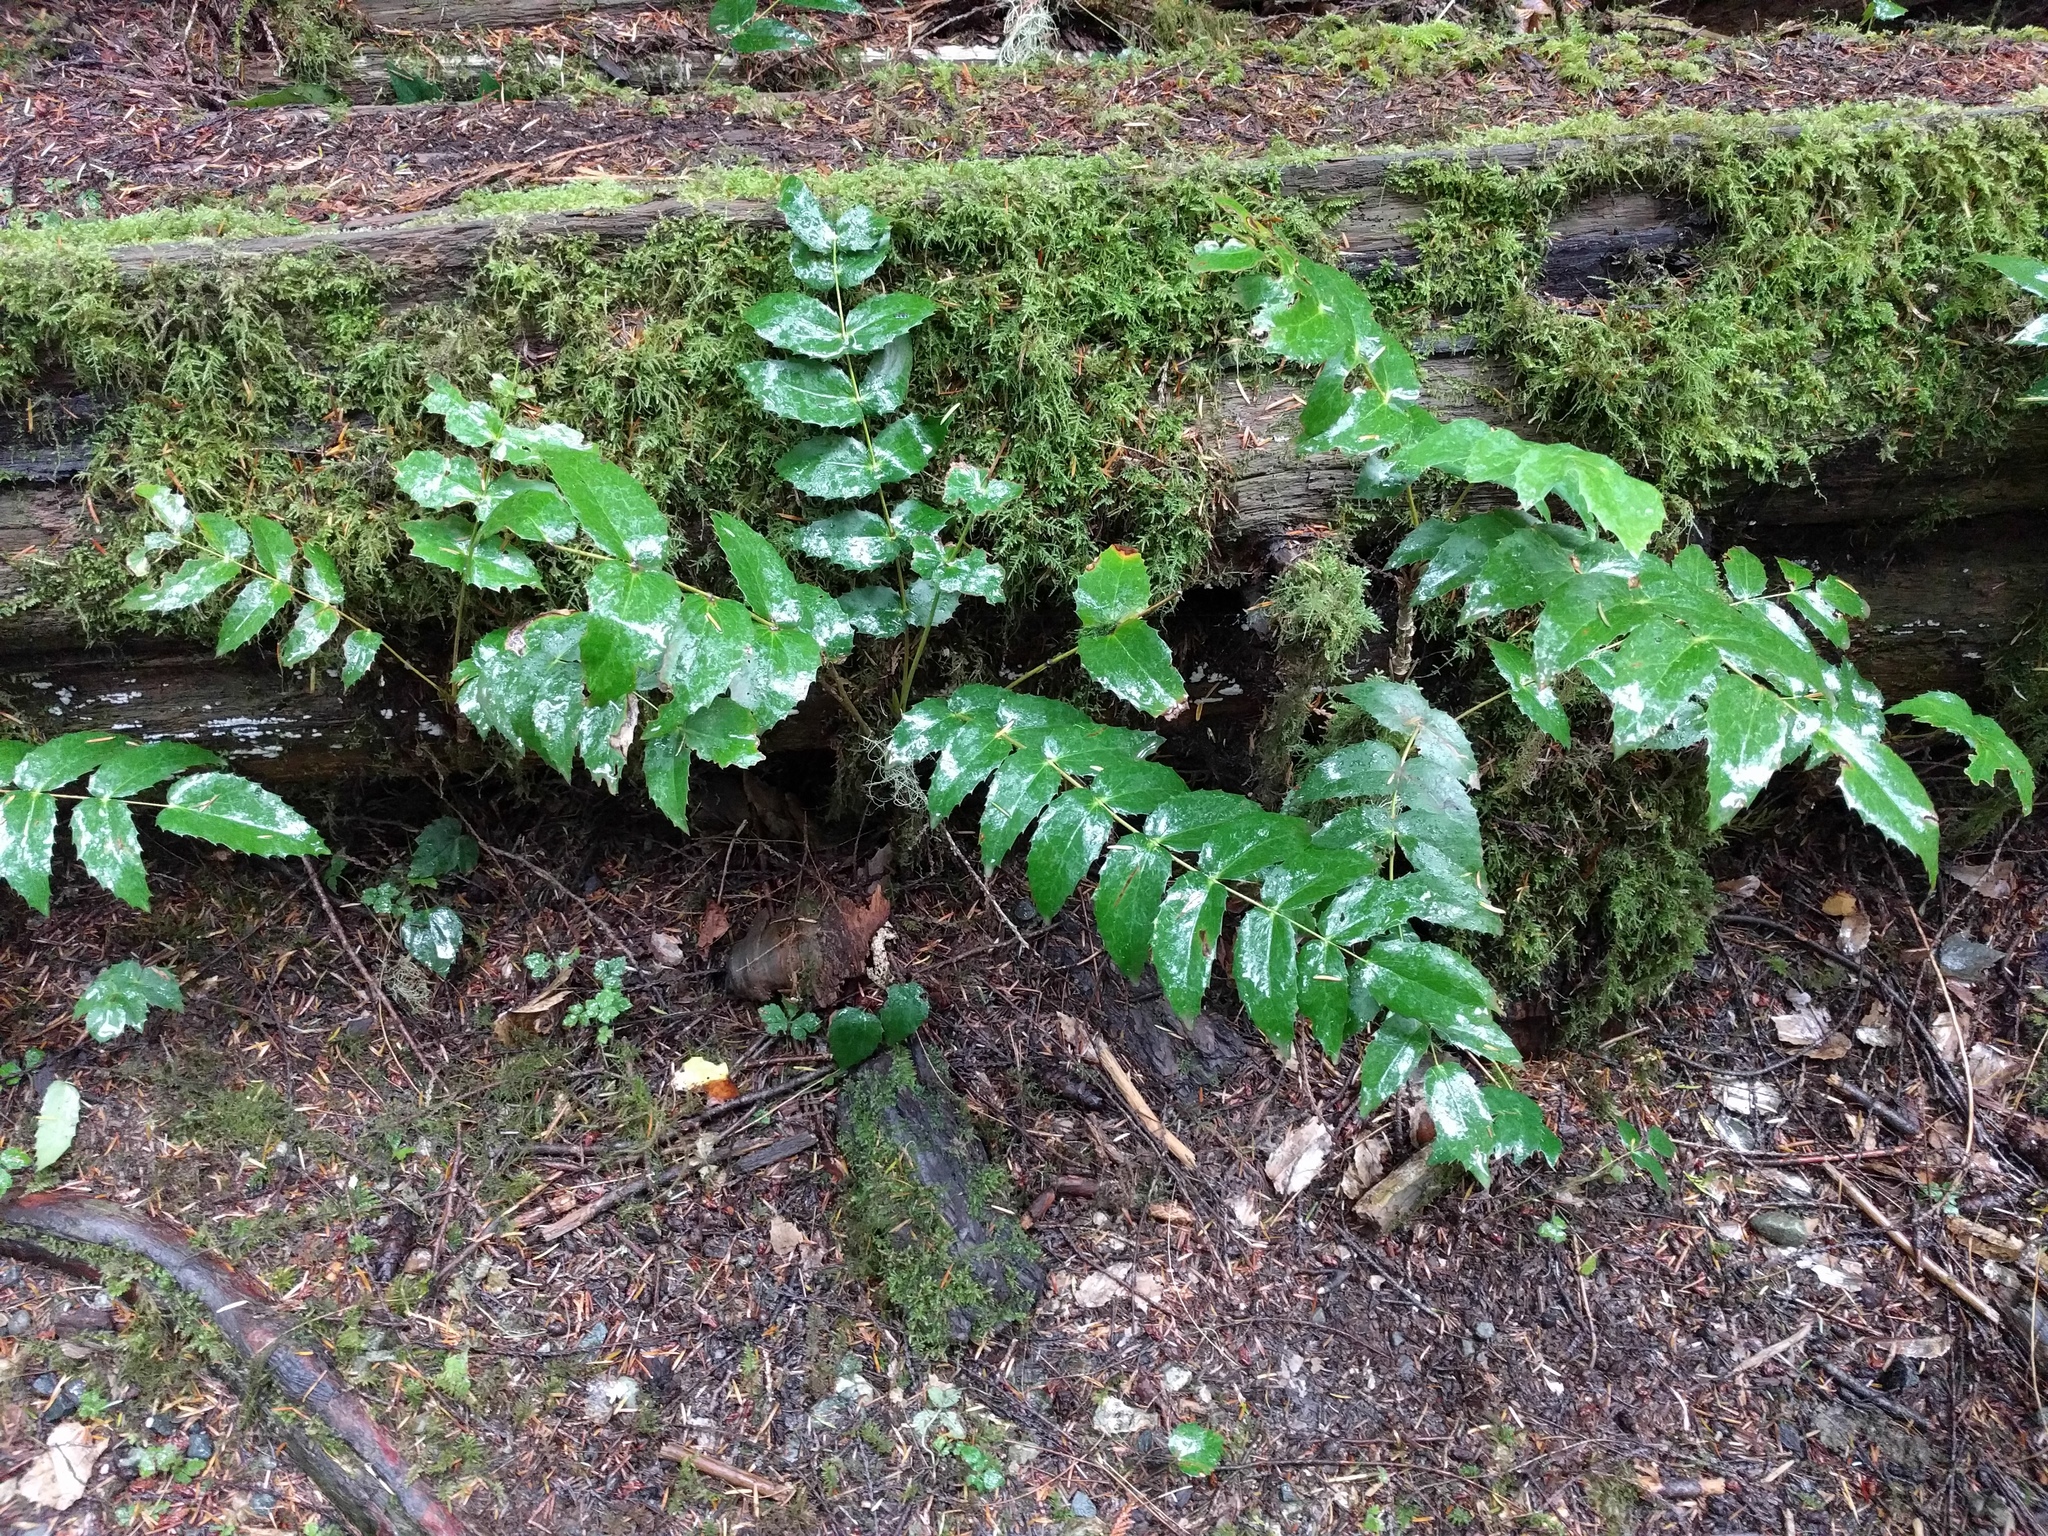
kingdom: Plantae
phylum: Tracheophyta
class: Magnoliopsida
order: Ranunculales
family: Berberidaceae
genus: Mahonia
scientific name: Mahonia nervosa
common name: Cascade oregon-grape
